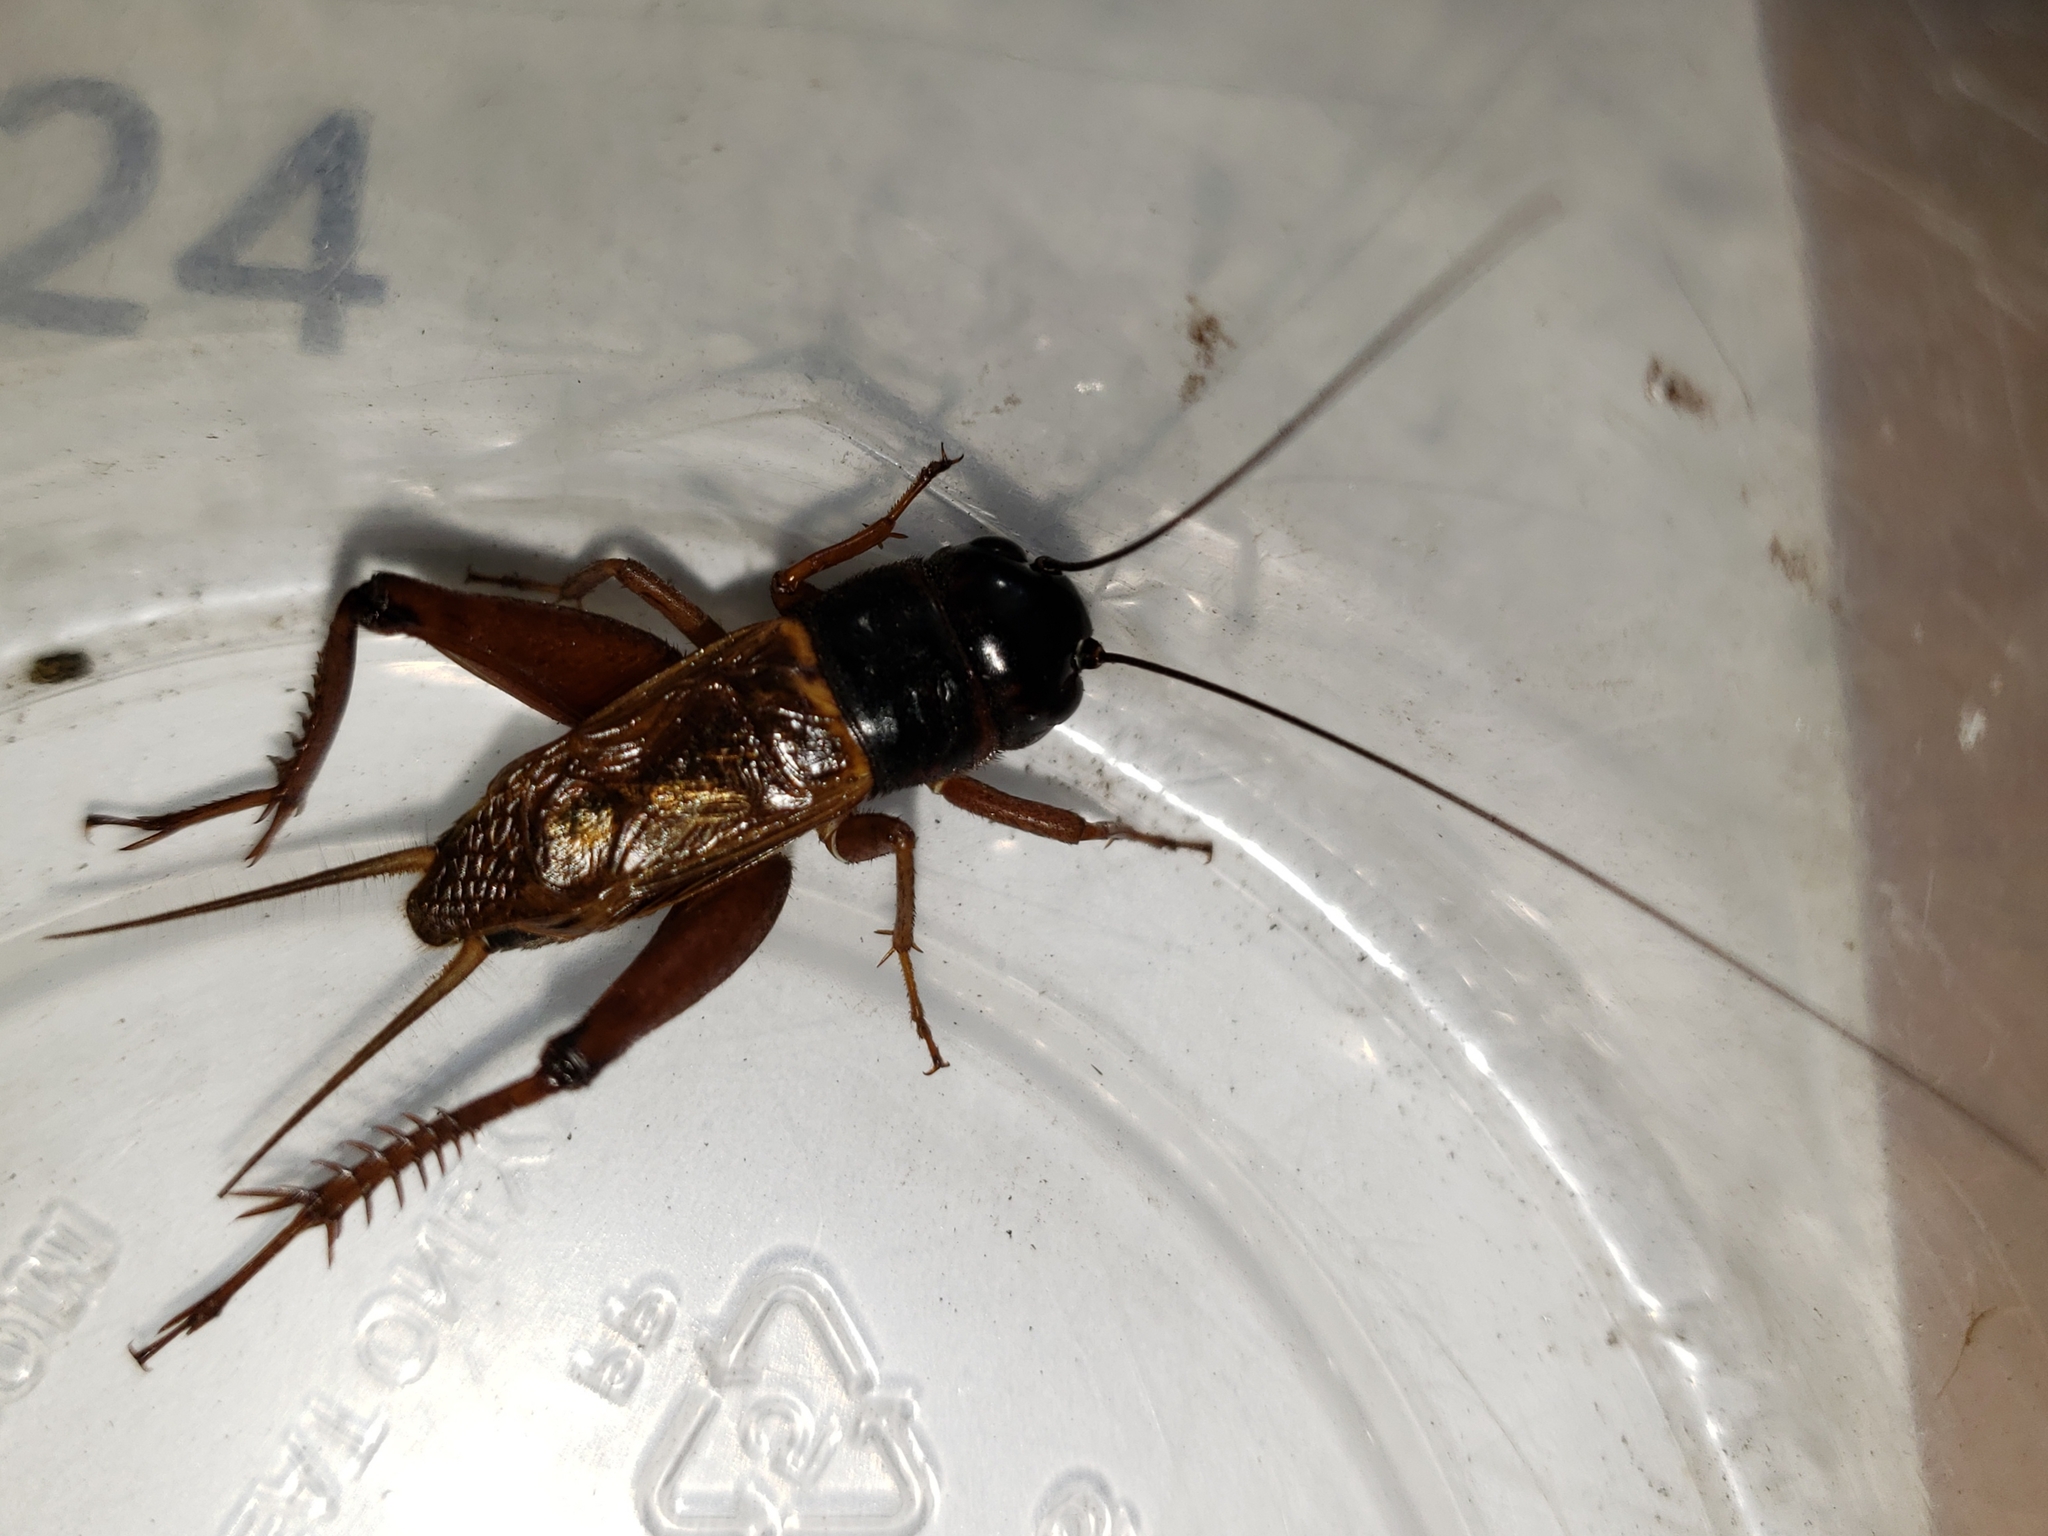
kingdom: Animalia
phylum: Arthropoda
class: Insecta
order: Orthoptera
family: Gryllidae
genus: Gryllus
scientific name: Gryllus firmus
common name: Sand field cricket
